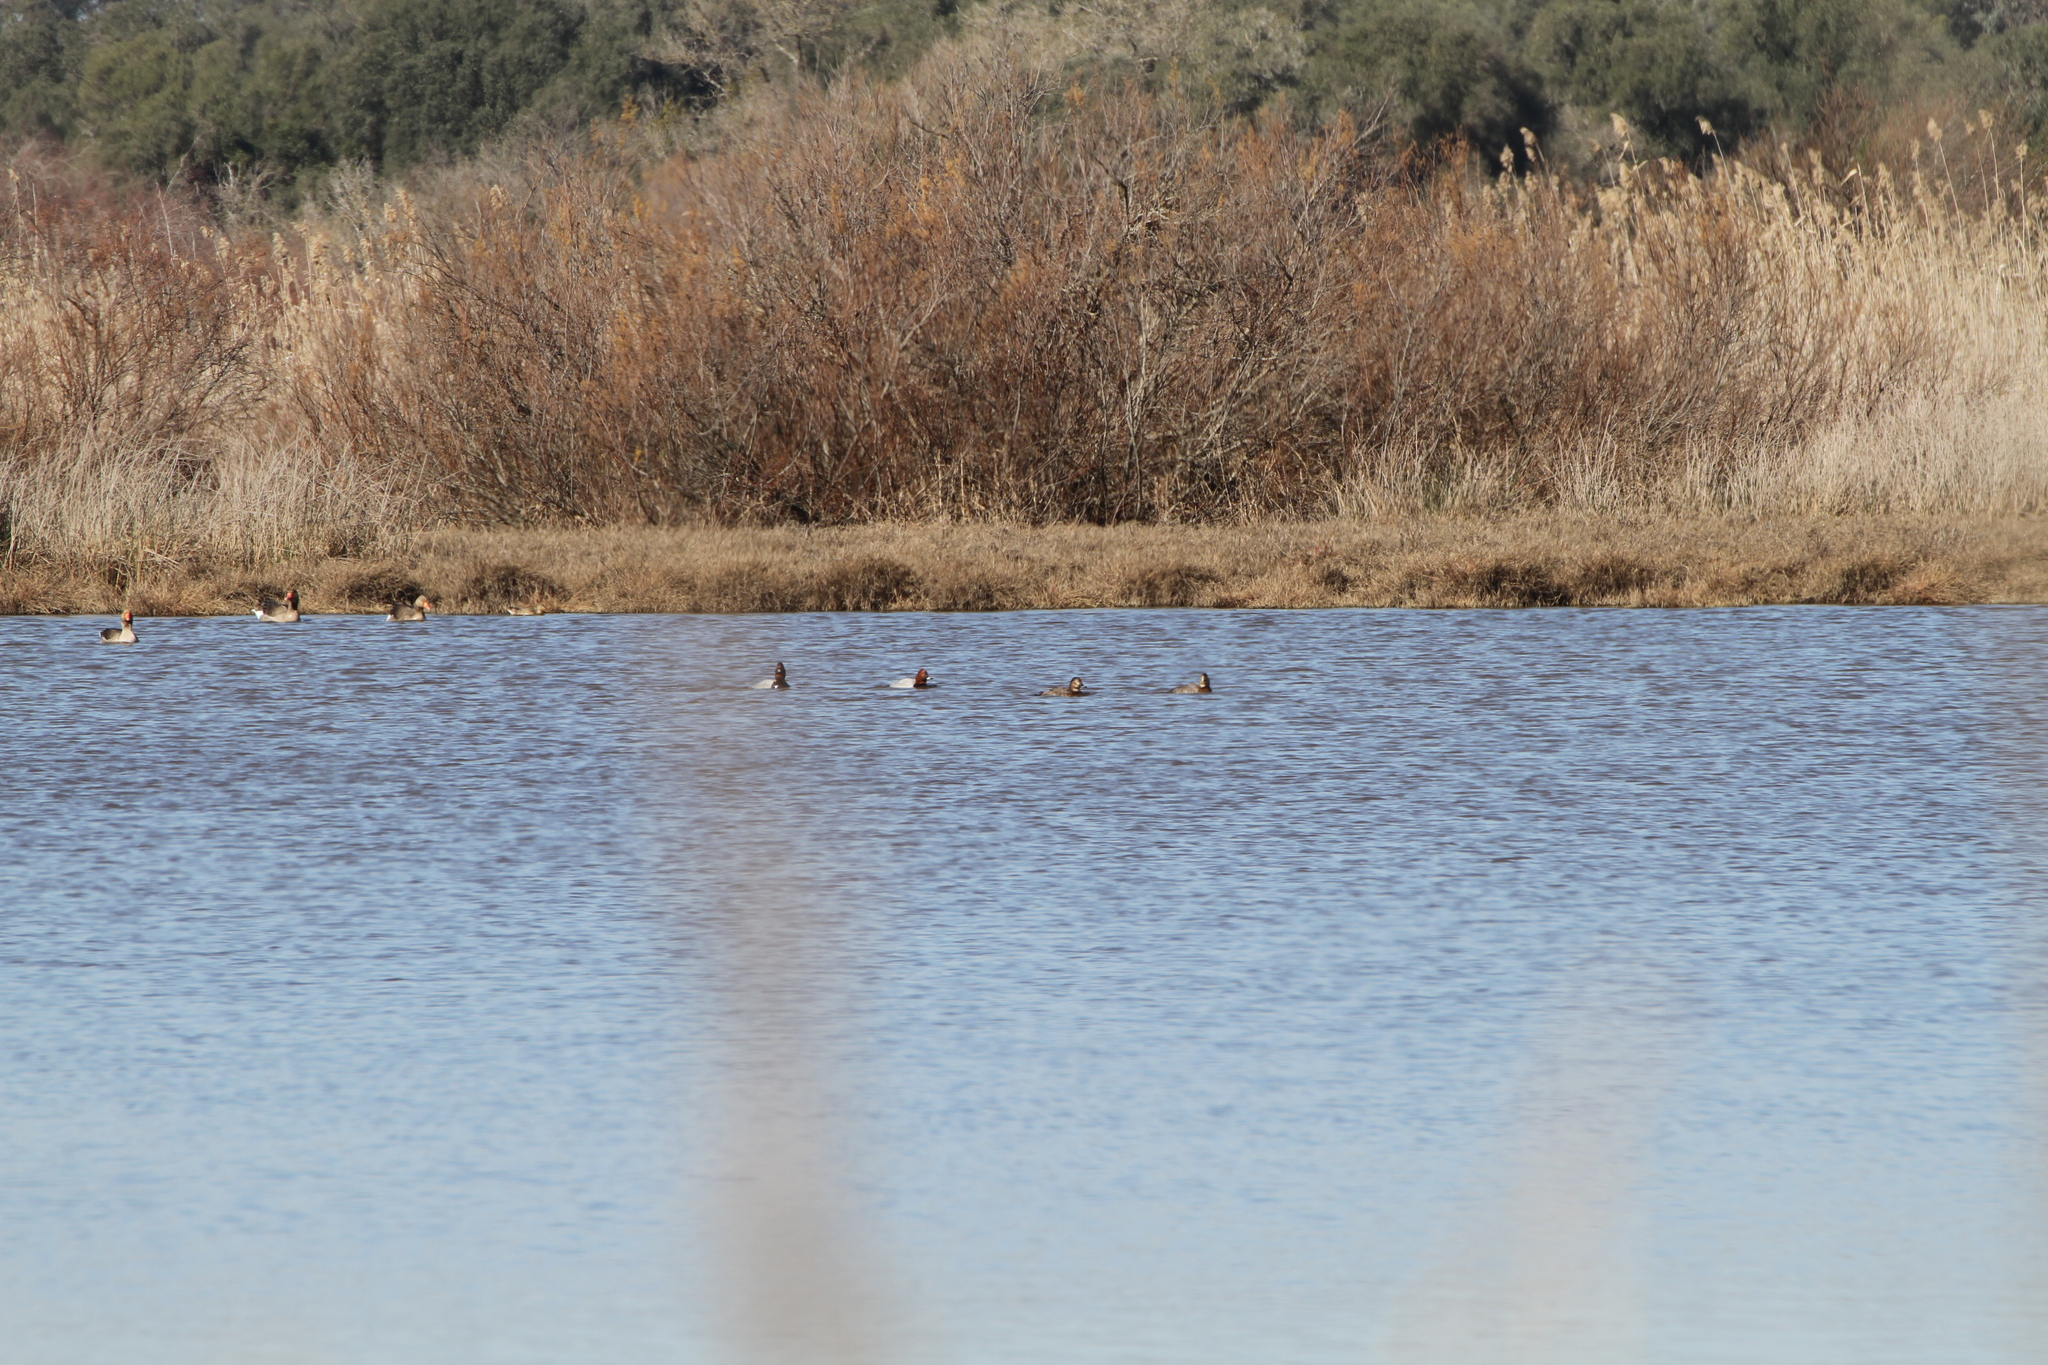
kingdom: Animalia
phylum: Chordata
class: Aves
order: Anseriformes
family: Anatidae
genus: Aythya
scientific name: Aythya ferina
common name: Common pochard
